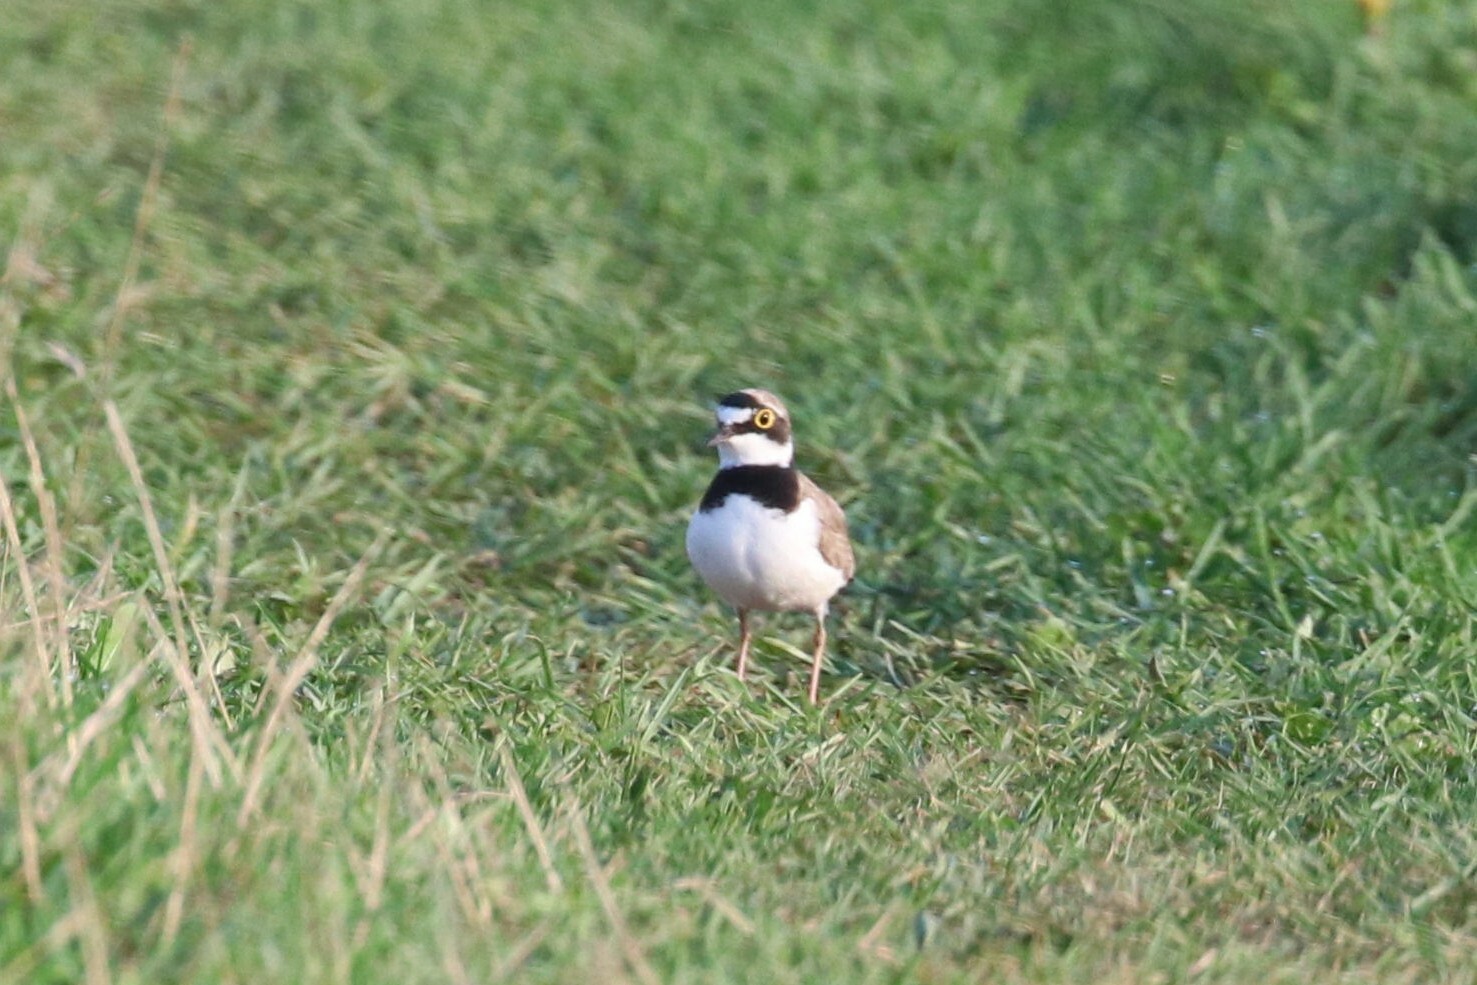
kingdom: Animalia
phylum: Chordata
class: Aves
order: Charadriiformes
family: Charadriidae
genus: Charadrius
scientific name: Charadrius dubius
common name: Little ringed plover
